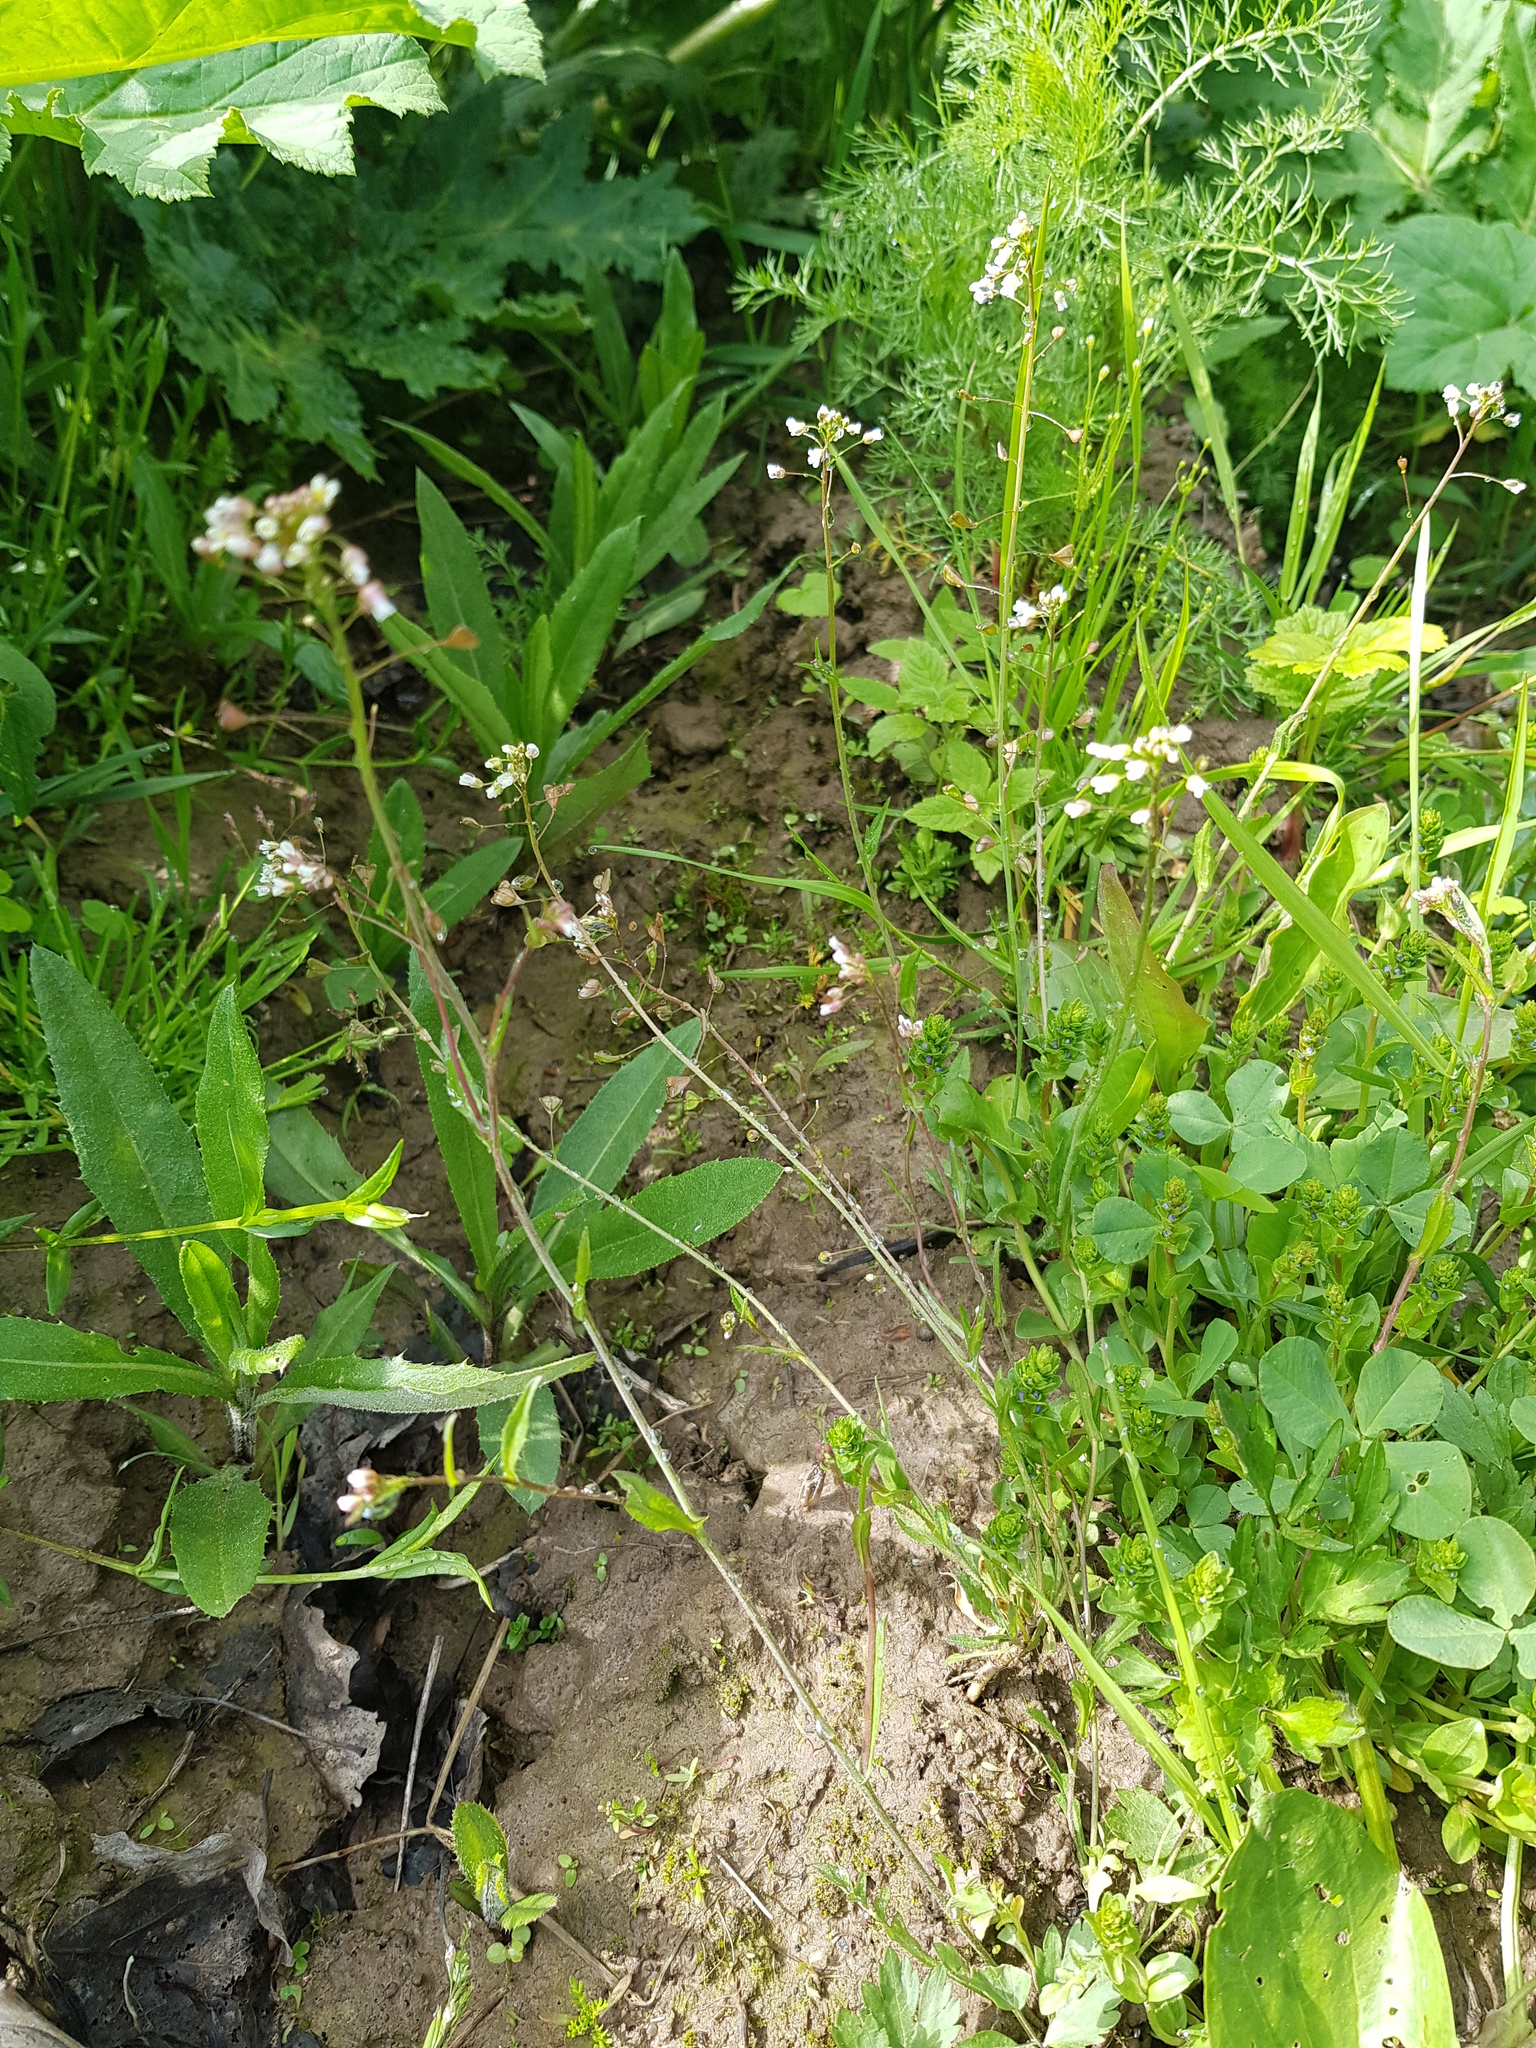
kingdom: Plantae
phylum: Tracheophyta
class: Magnoliopsida
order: Brassicales
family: Brassicaceae
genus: Capsella
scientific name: Capsella bursa-pastoris
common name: Shepherd's purse
